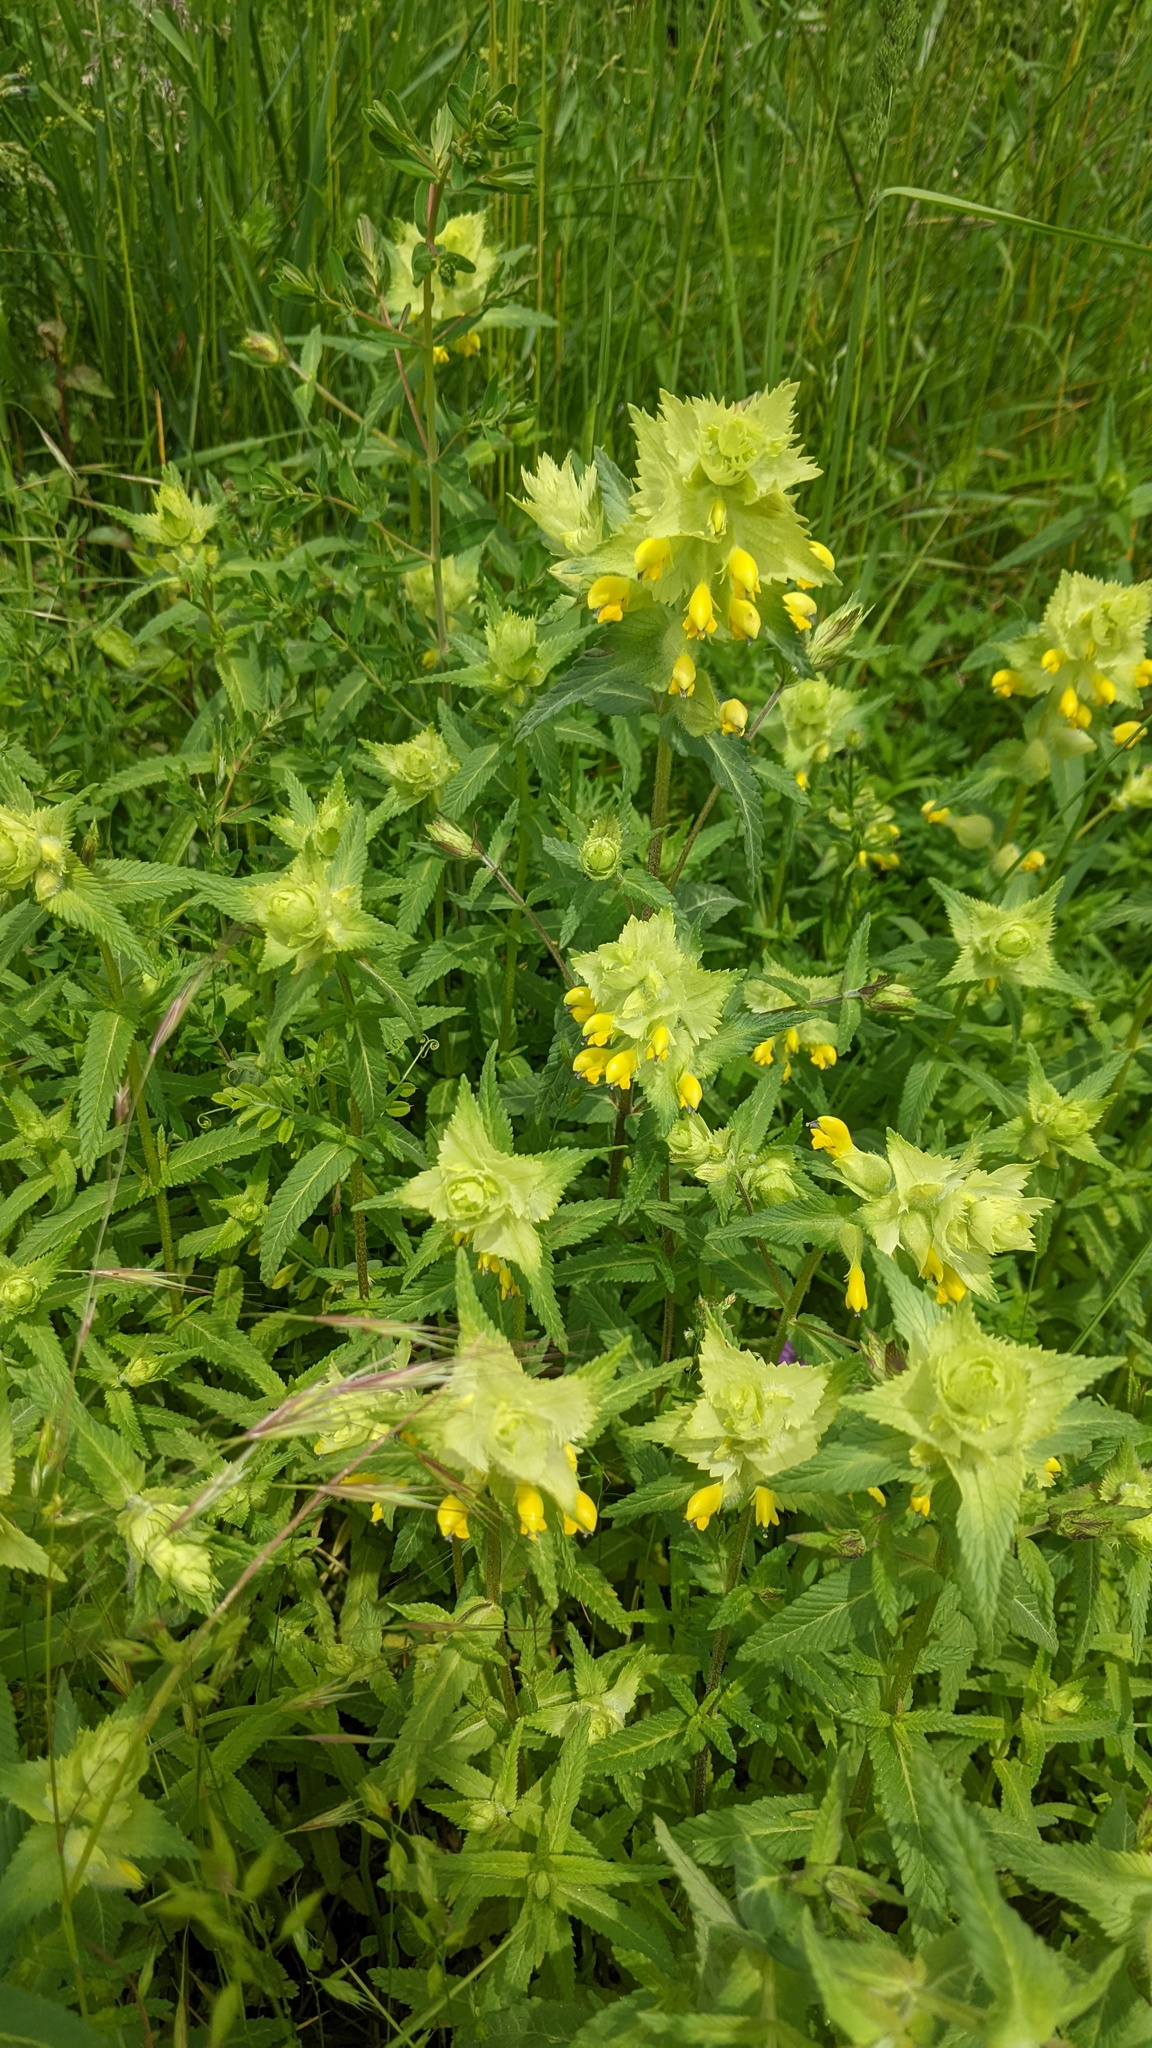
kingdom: Plantae
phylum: Tracheophyta
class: Magnoliopsida
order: Lamiales
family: Orobanchaceae
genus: Rhinanthus
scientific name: Rhinanthus alectorolophus
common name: Greater yellow-rattle
